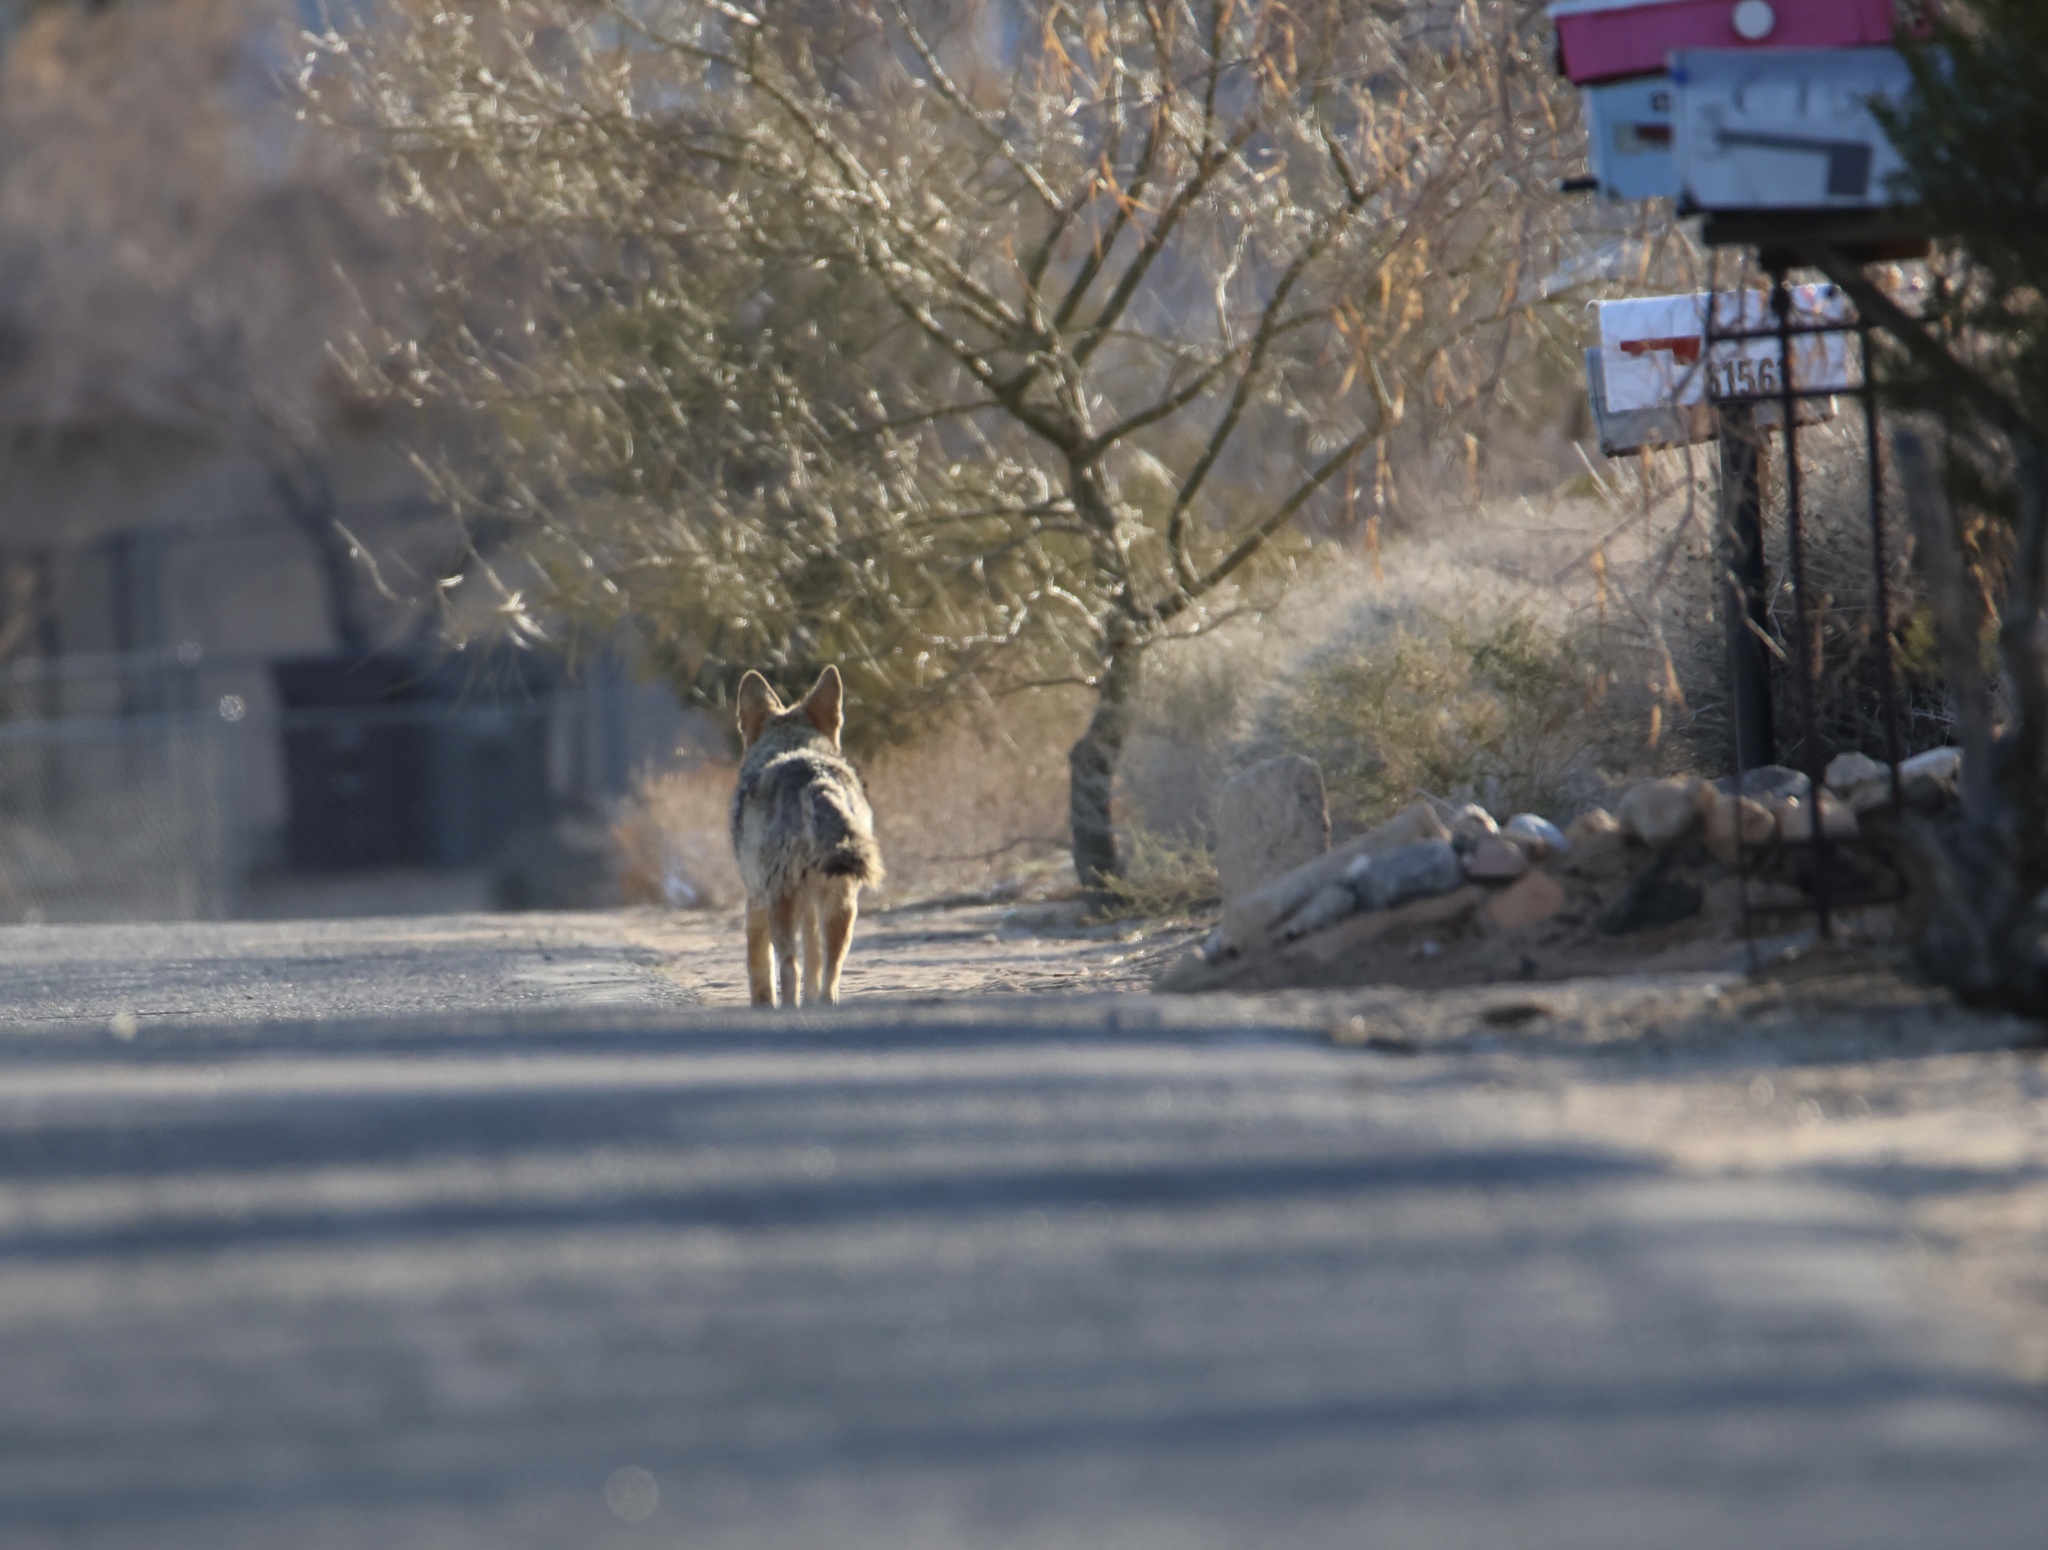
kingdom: Animalia
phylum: Chordata
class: Mammalia
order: Carnivora
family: Canidae
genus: Canis
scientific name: Canis latrans
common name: Coyote
